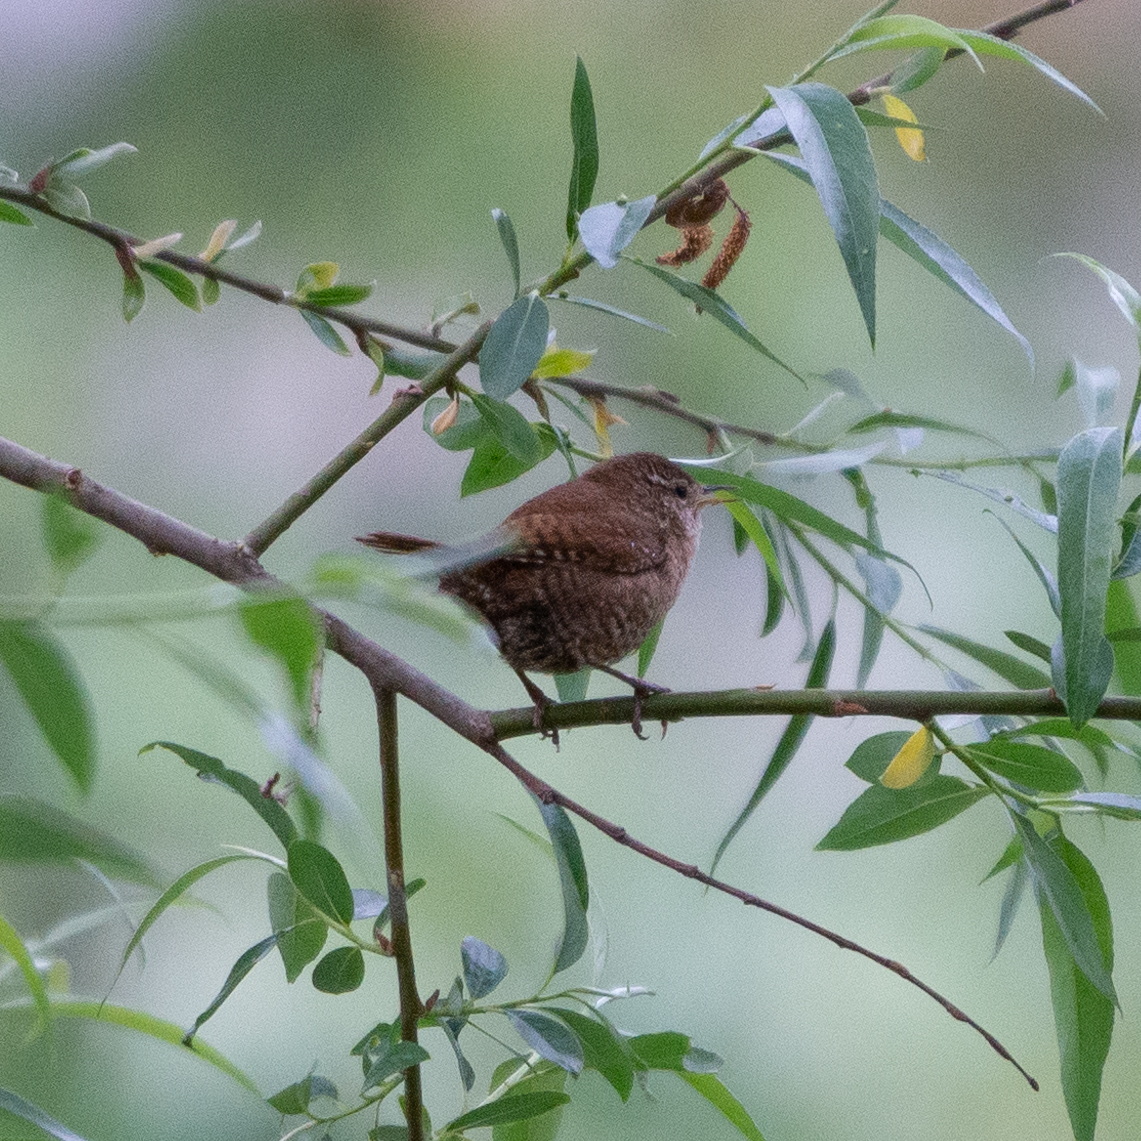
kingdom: Animalia
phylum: Chordata
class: Aves
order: Passeriformes
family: Troglodytidae
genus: Troglodytes
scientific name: Troglodytes troglodytes
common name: Eurasian wren
